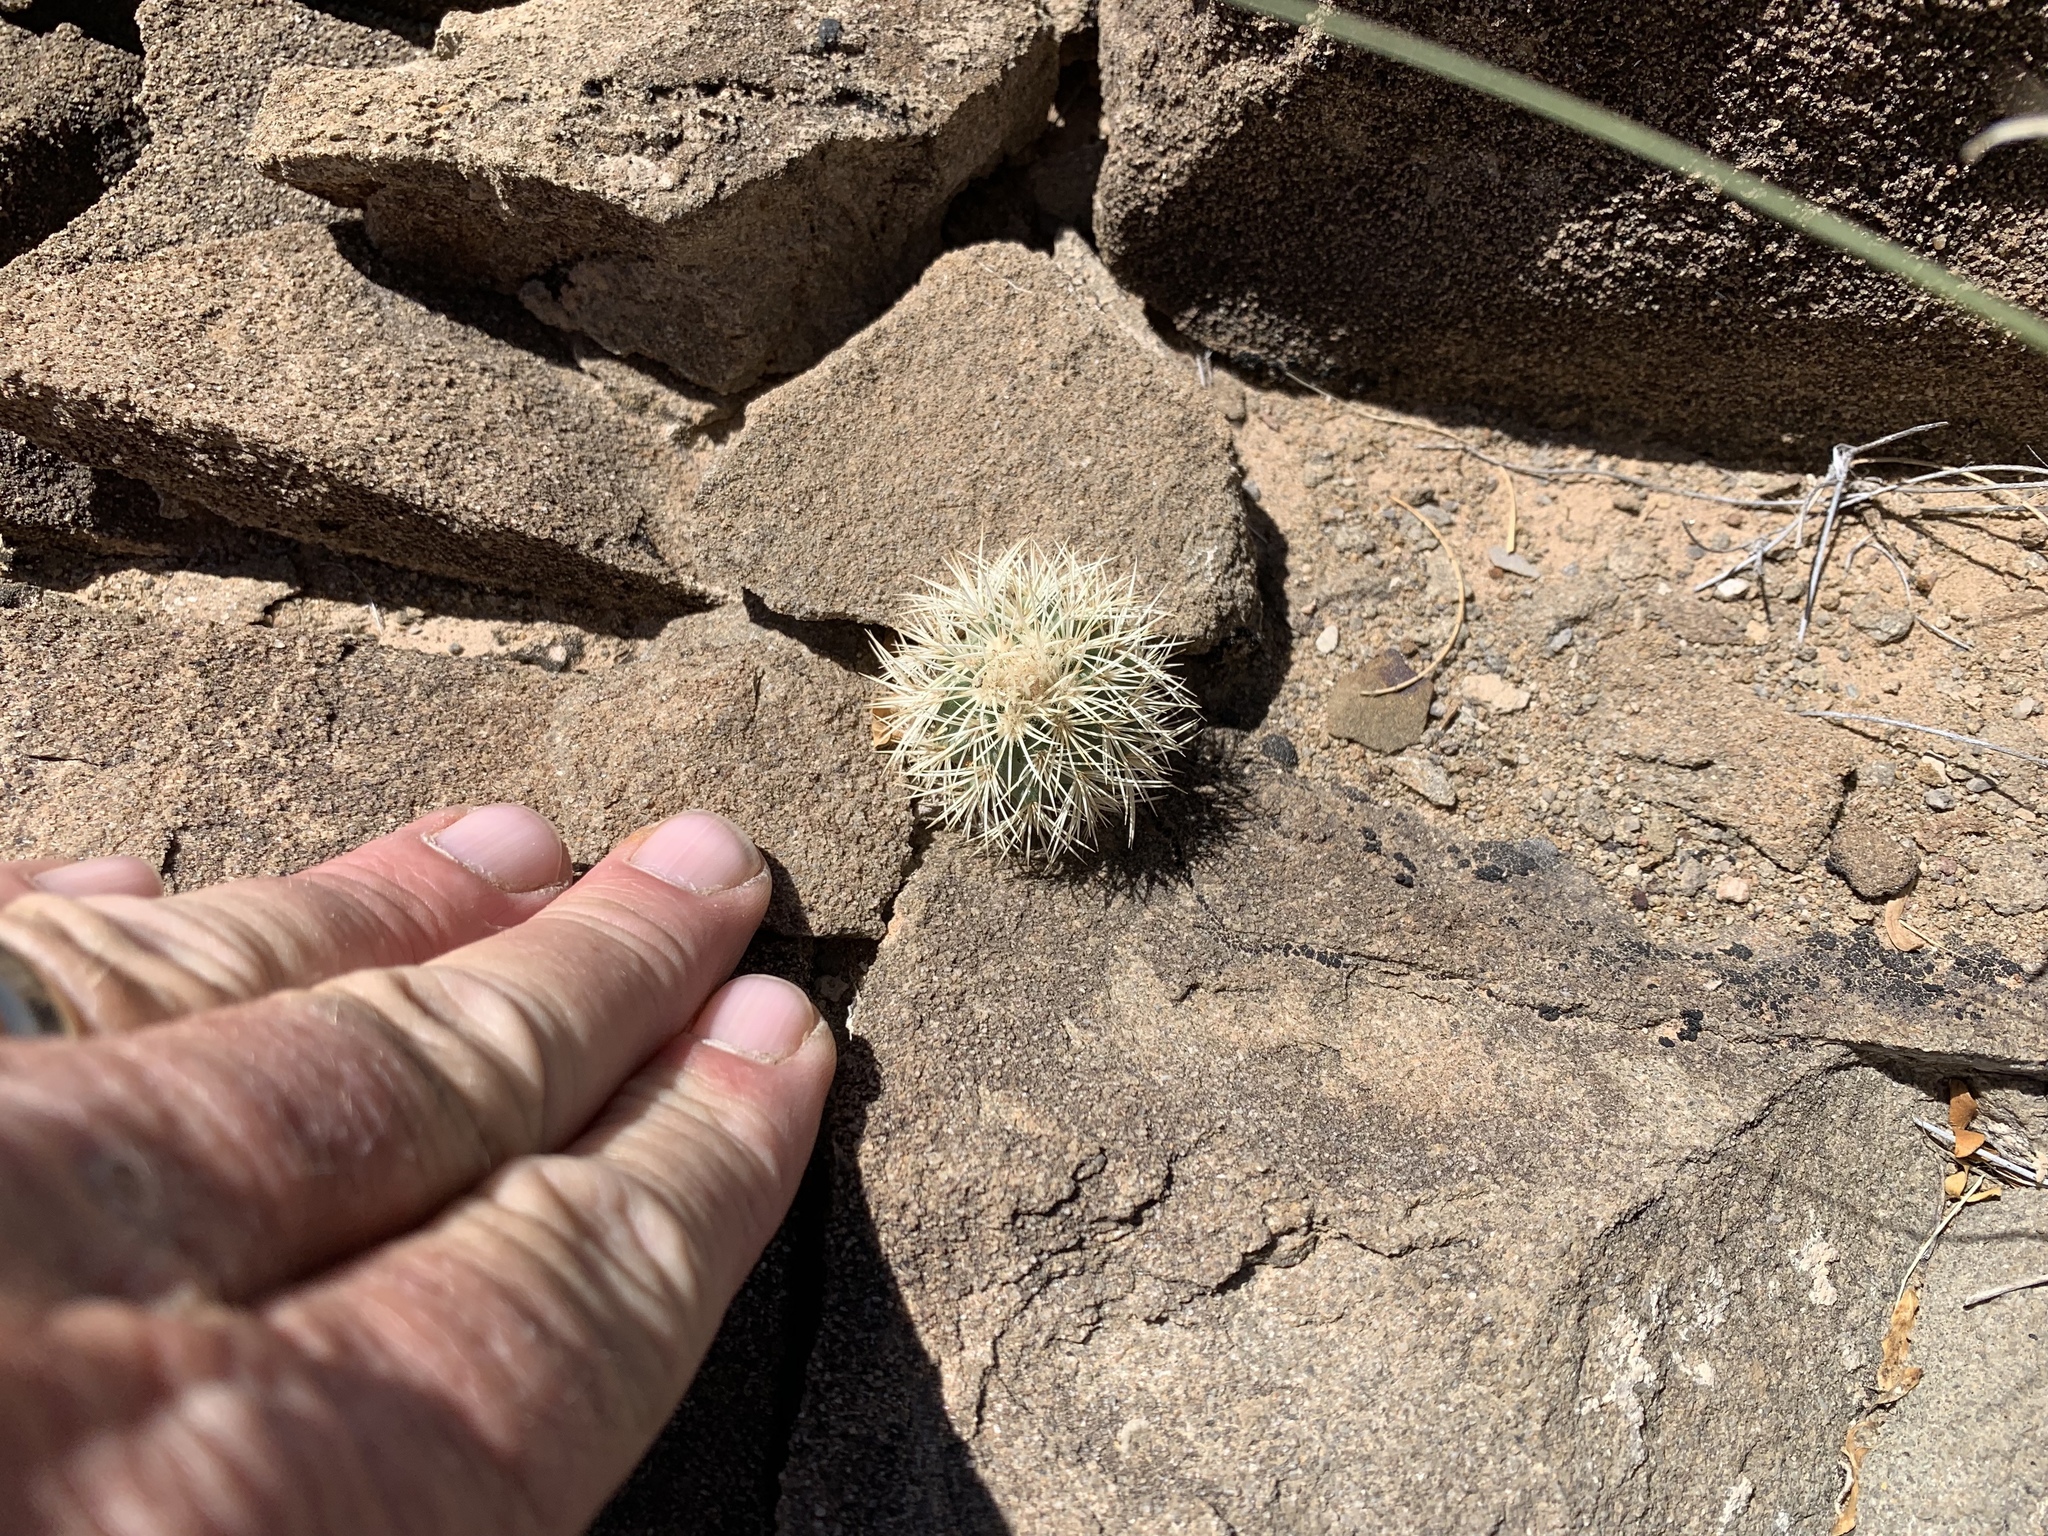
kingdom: Plantae
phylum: Tracheophyta
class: Magnoliopsida
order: Caryophyllales
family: Cactaceae
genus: Echinocereus
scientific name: Echinocereus dasyacanthus
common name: Spiny hedgehog cactus
